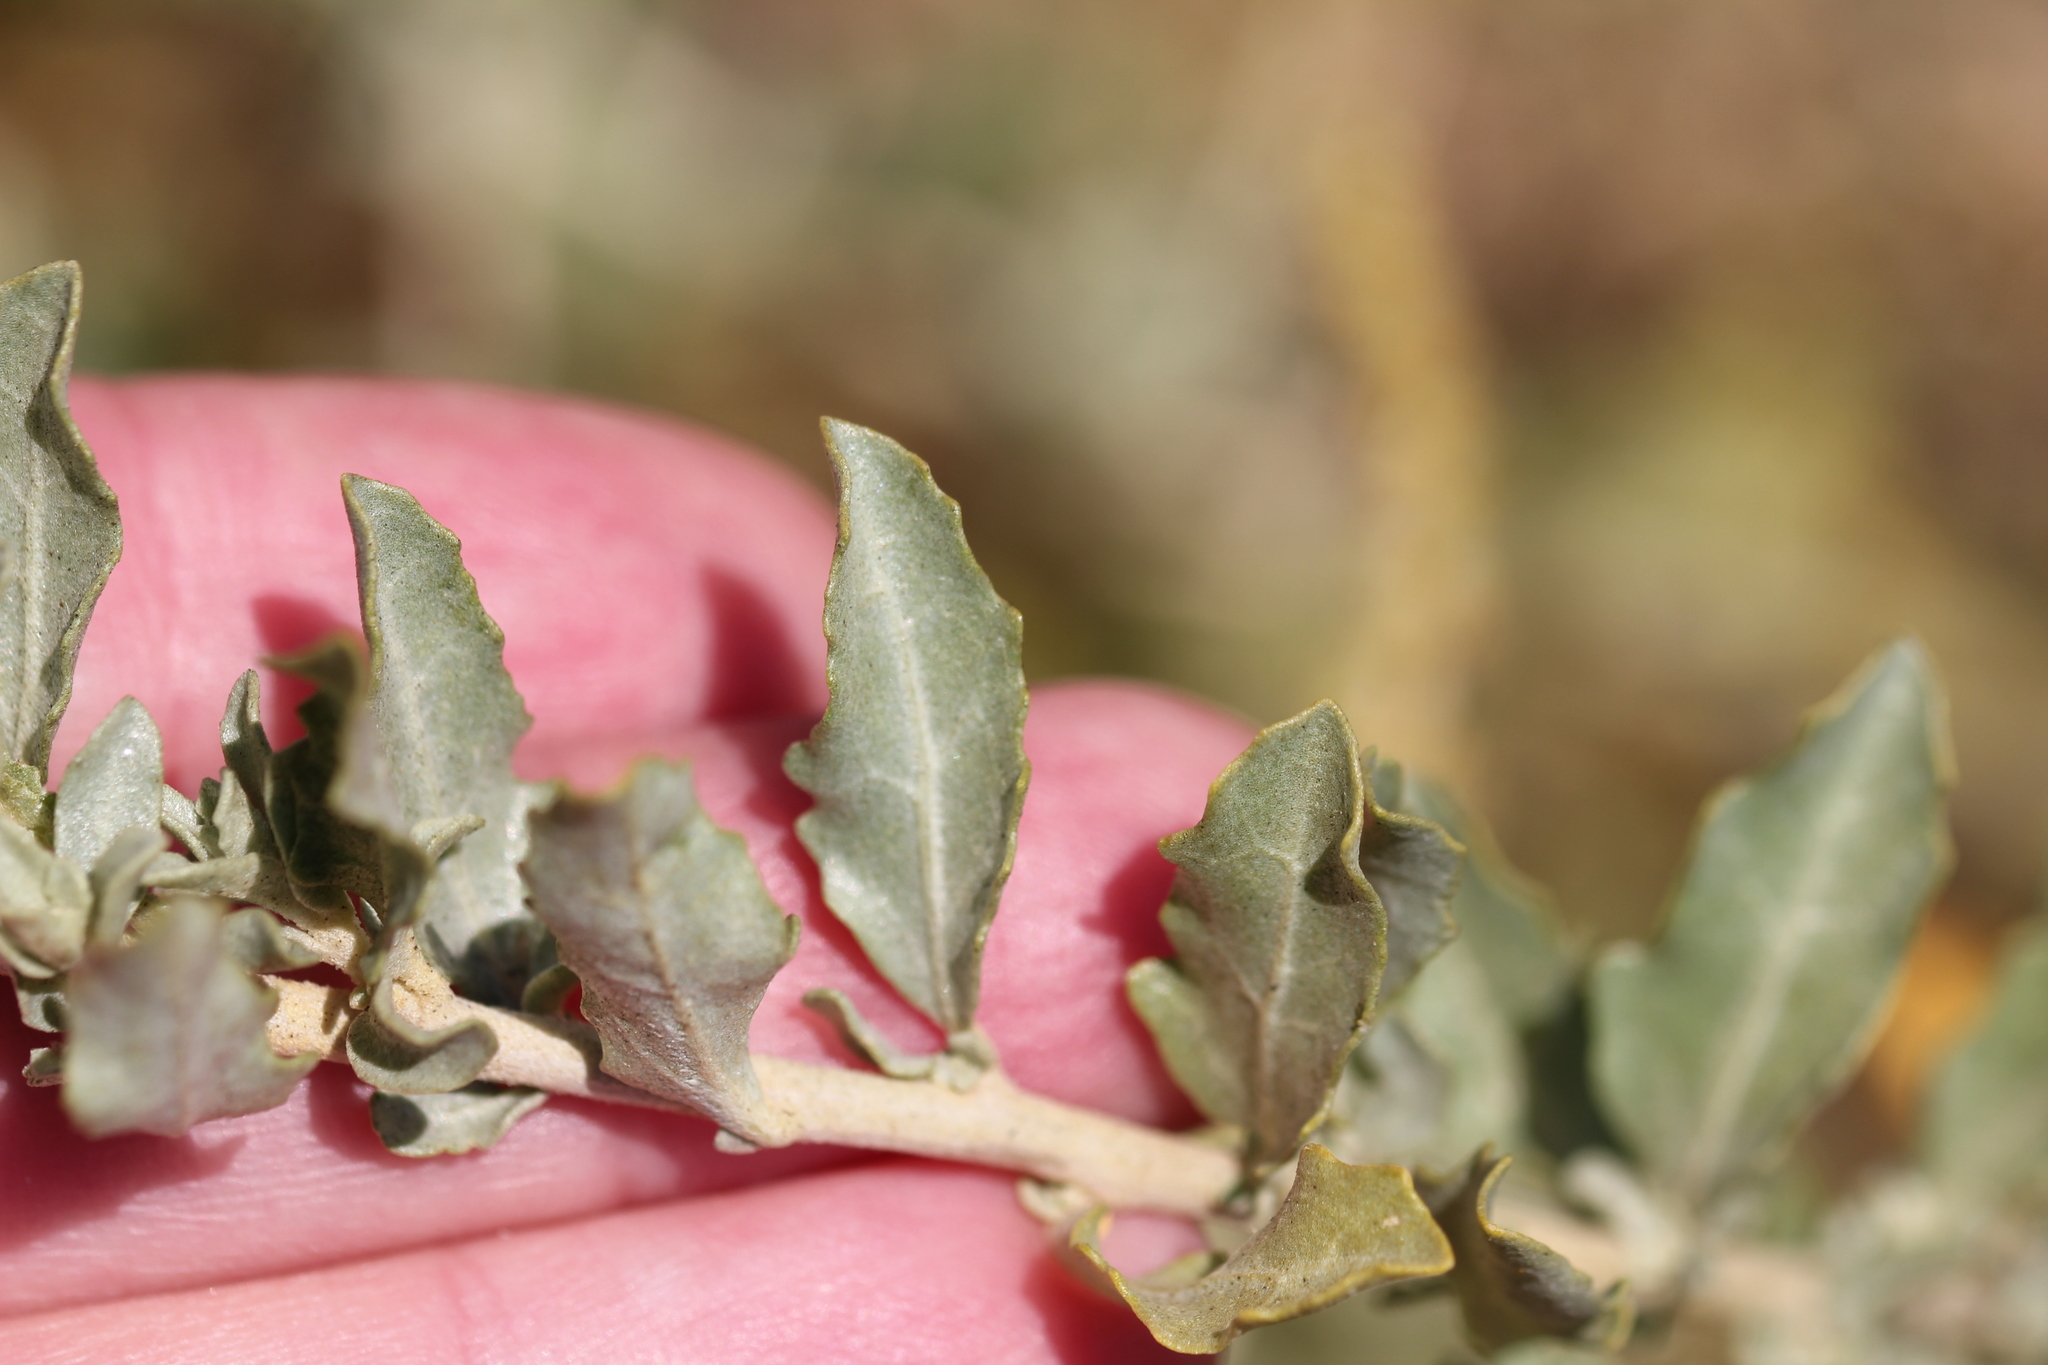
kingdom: Plantae
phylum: Tracheophyta
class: Magnoliopsida
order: Caryophyllales
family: Amaranthaceae
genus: Atriplex
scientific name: Atriplex glauca
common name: Waxy saltbush
